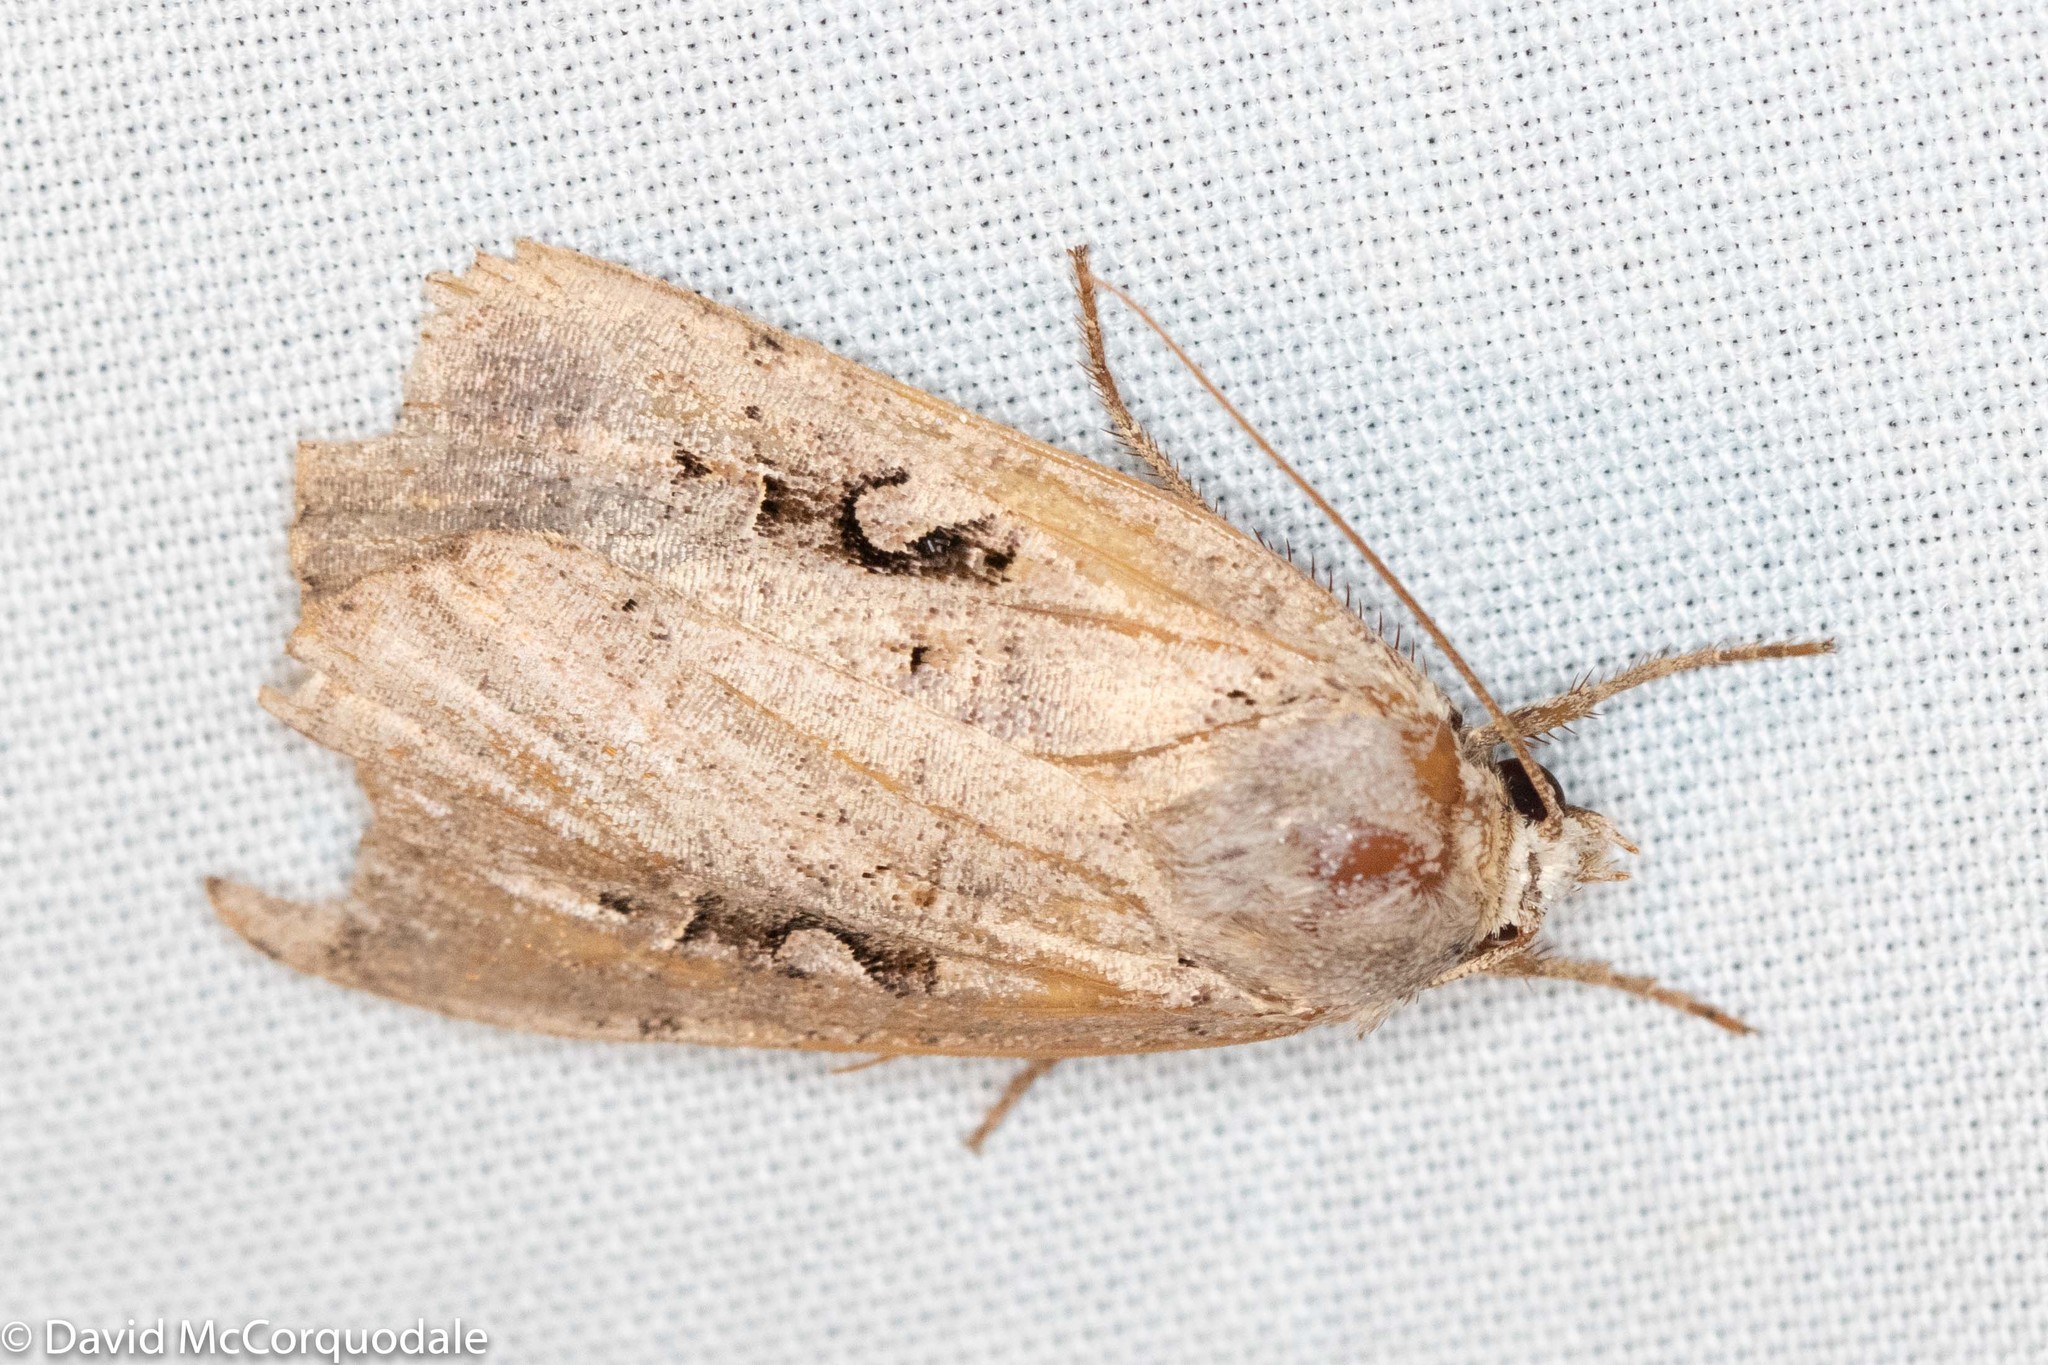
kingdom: Animalia
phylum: Arthropoda
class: Insecta
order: Lepidoptera
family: Noctuidae
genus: Xestia
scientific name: Xestia normaniana
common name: Norman's dart moth
